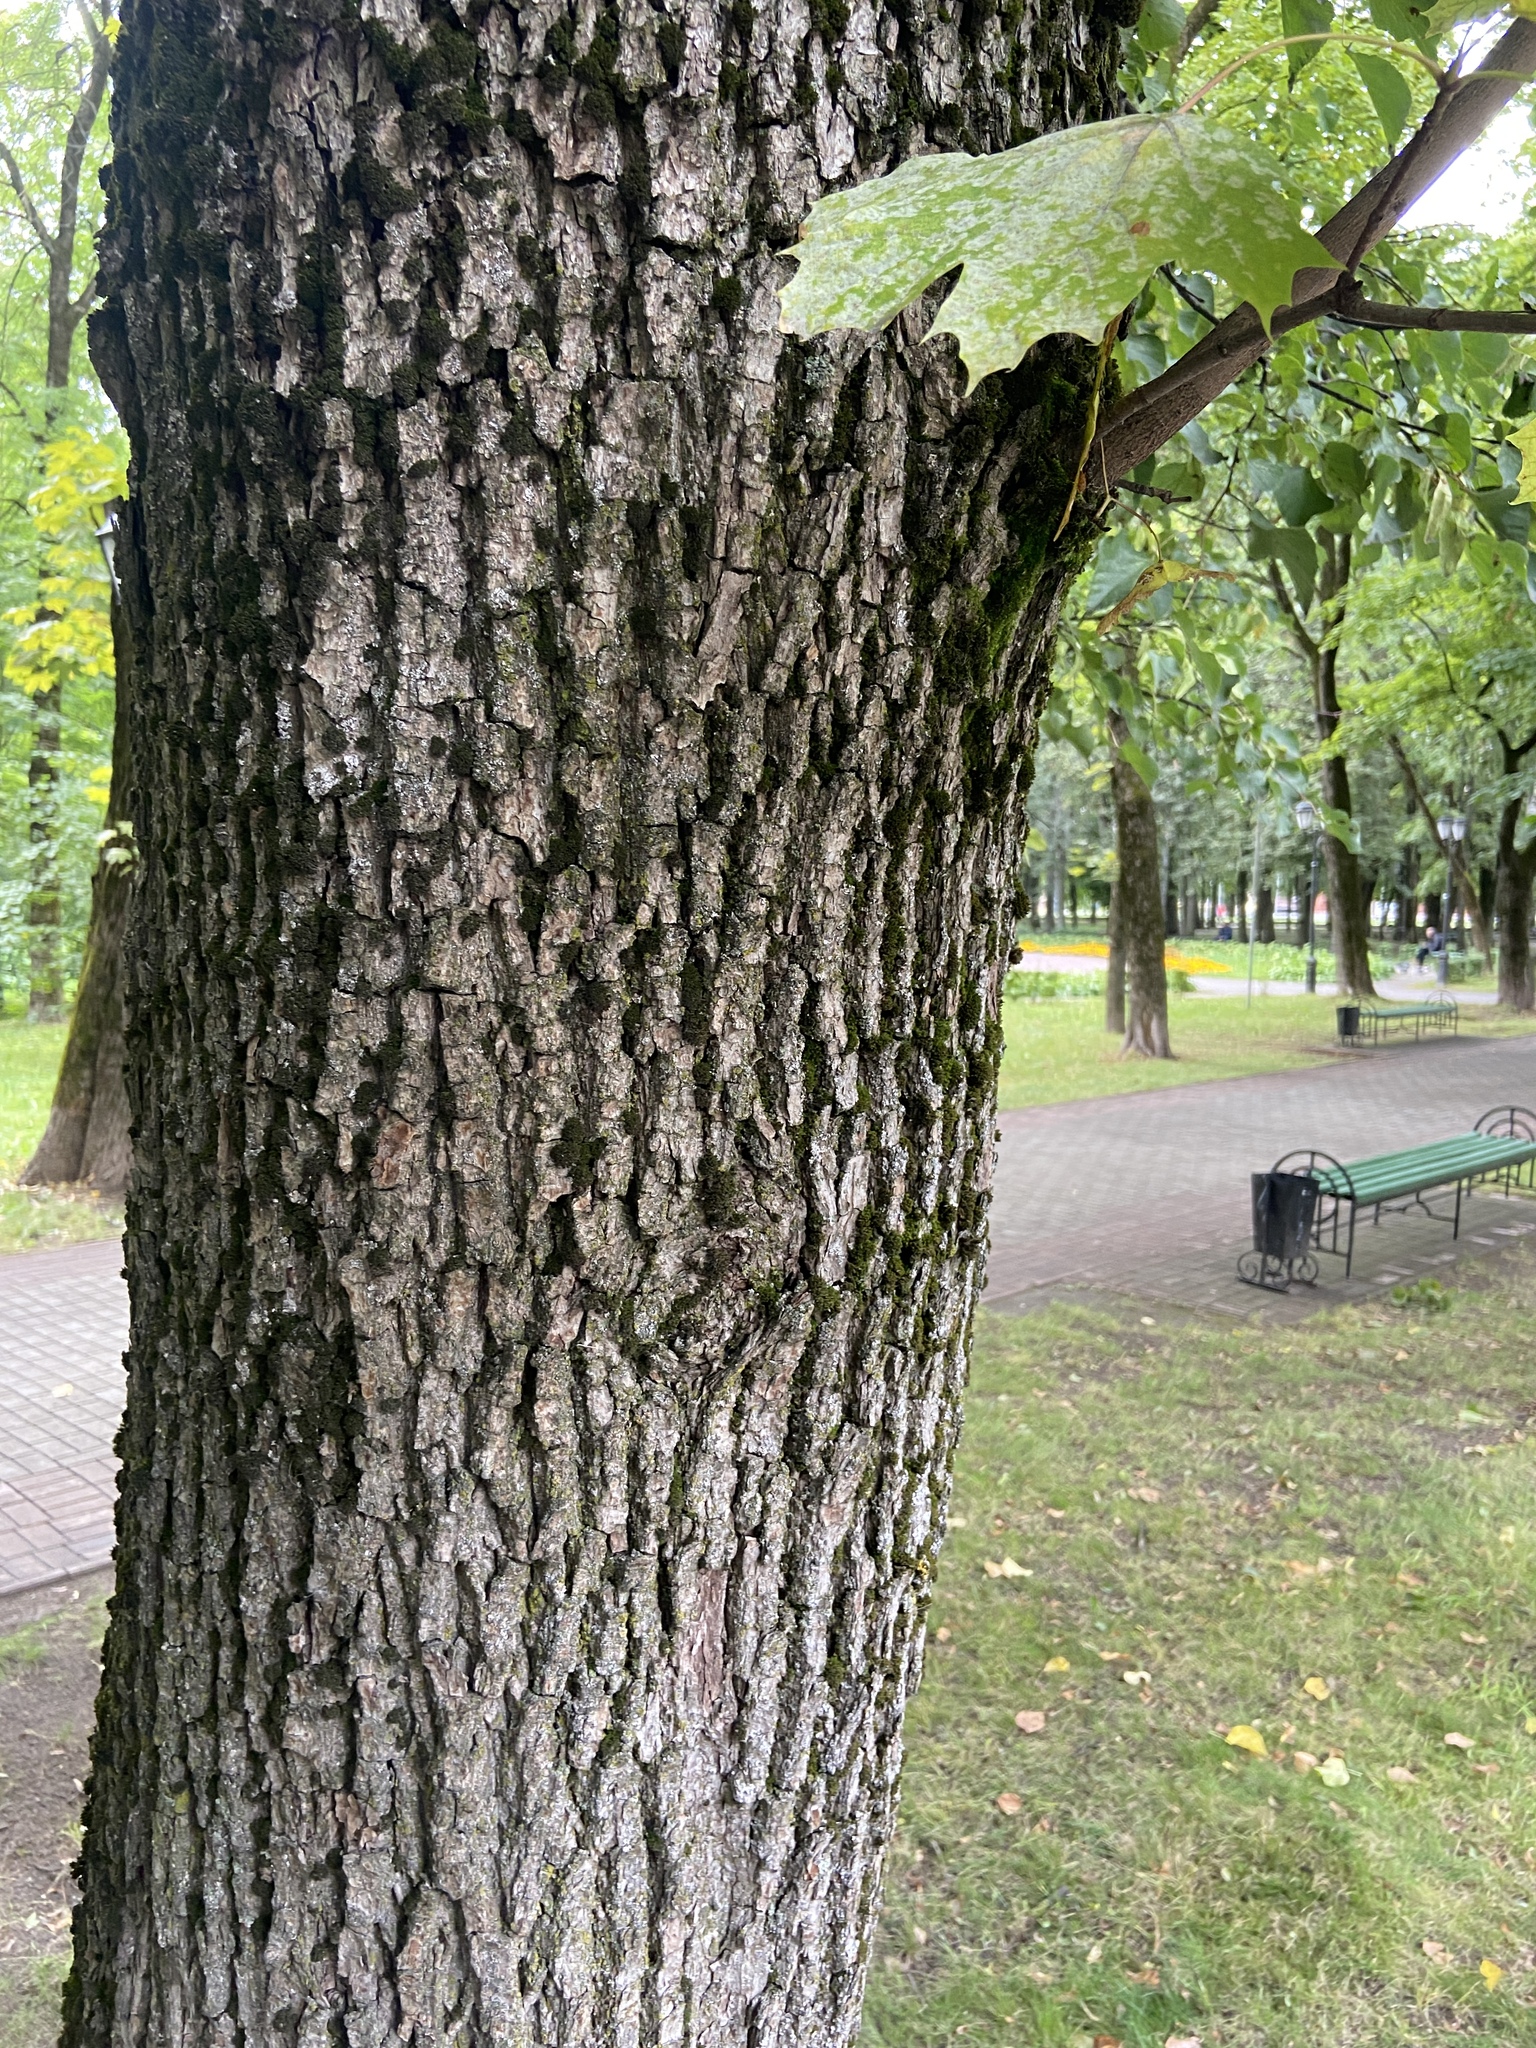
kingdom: Plantae
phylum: Tracheophyta
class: Magnoliopsida
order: Sapindales
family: Sapindaceae
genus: Acer
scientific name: Acer platanoides
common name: Norway maple
